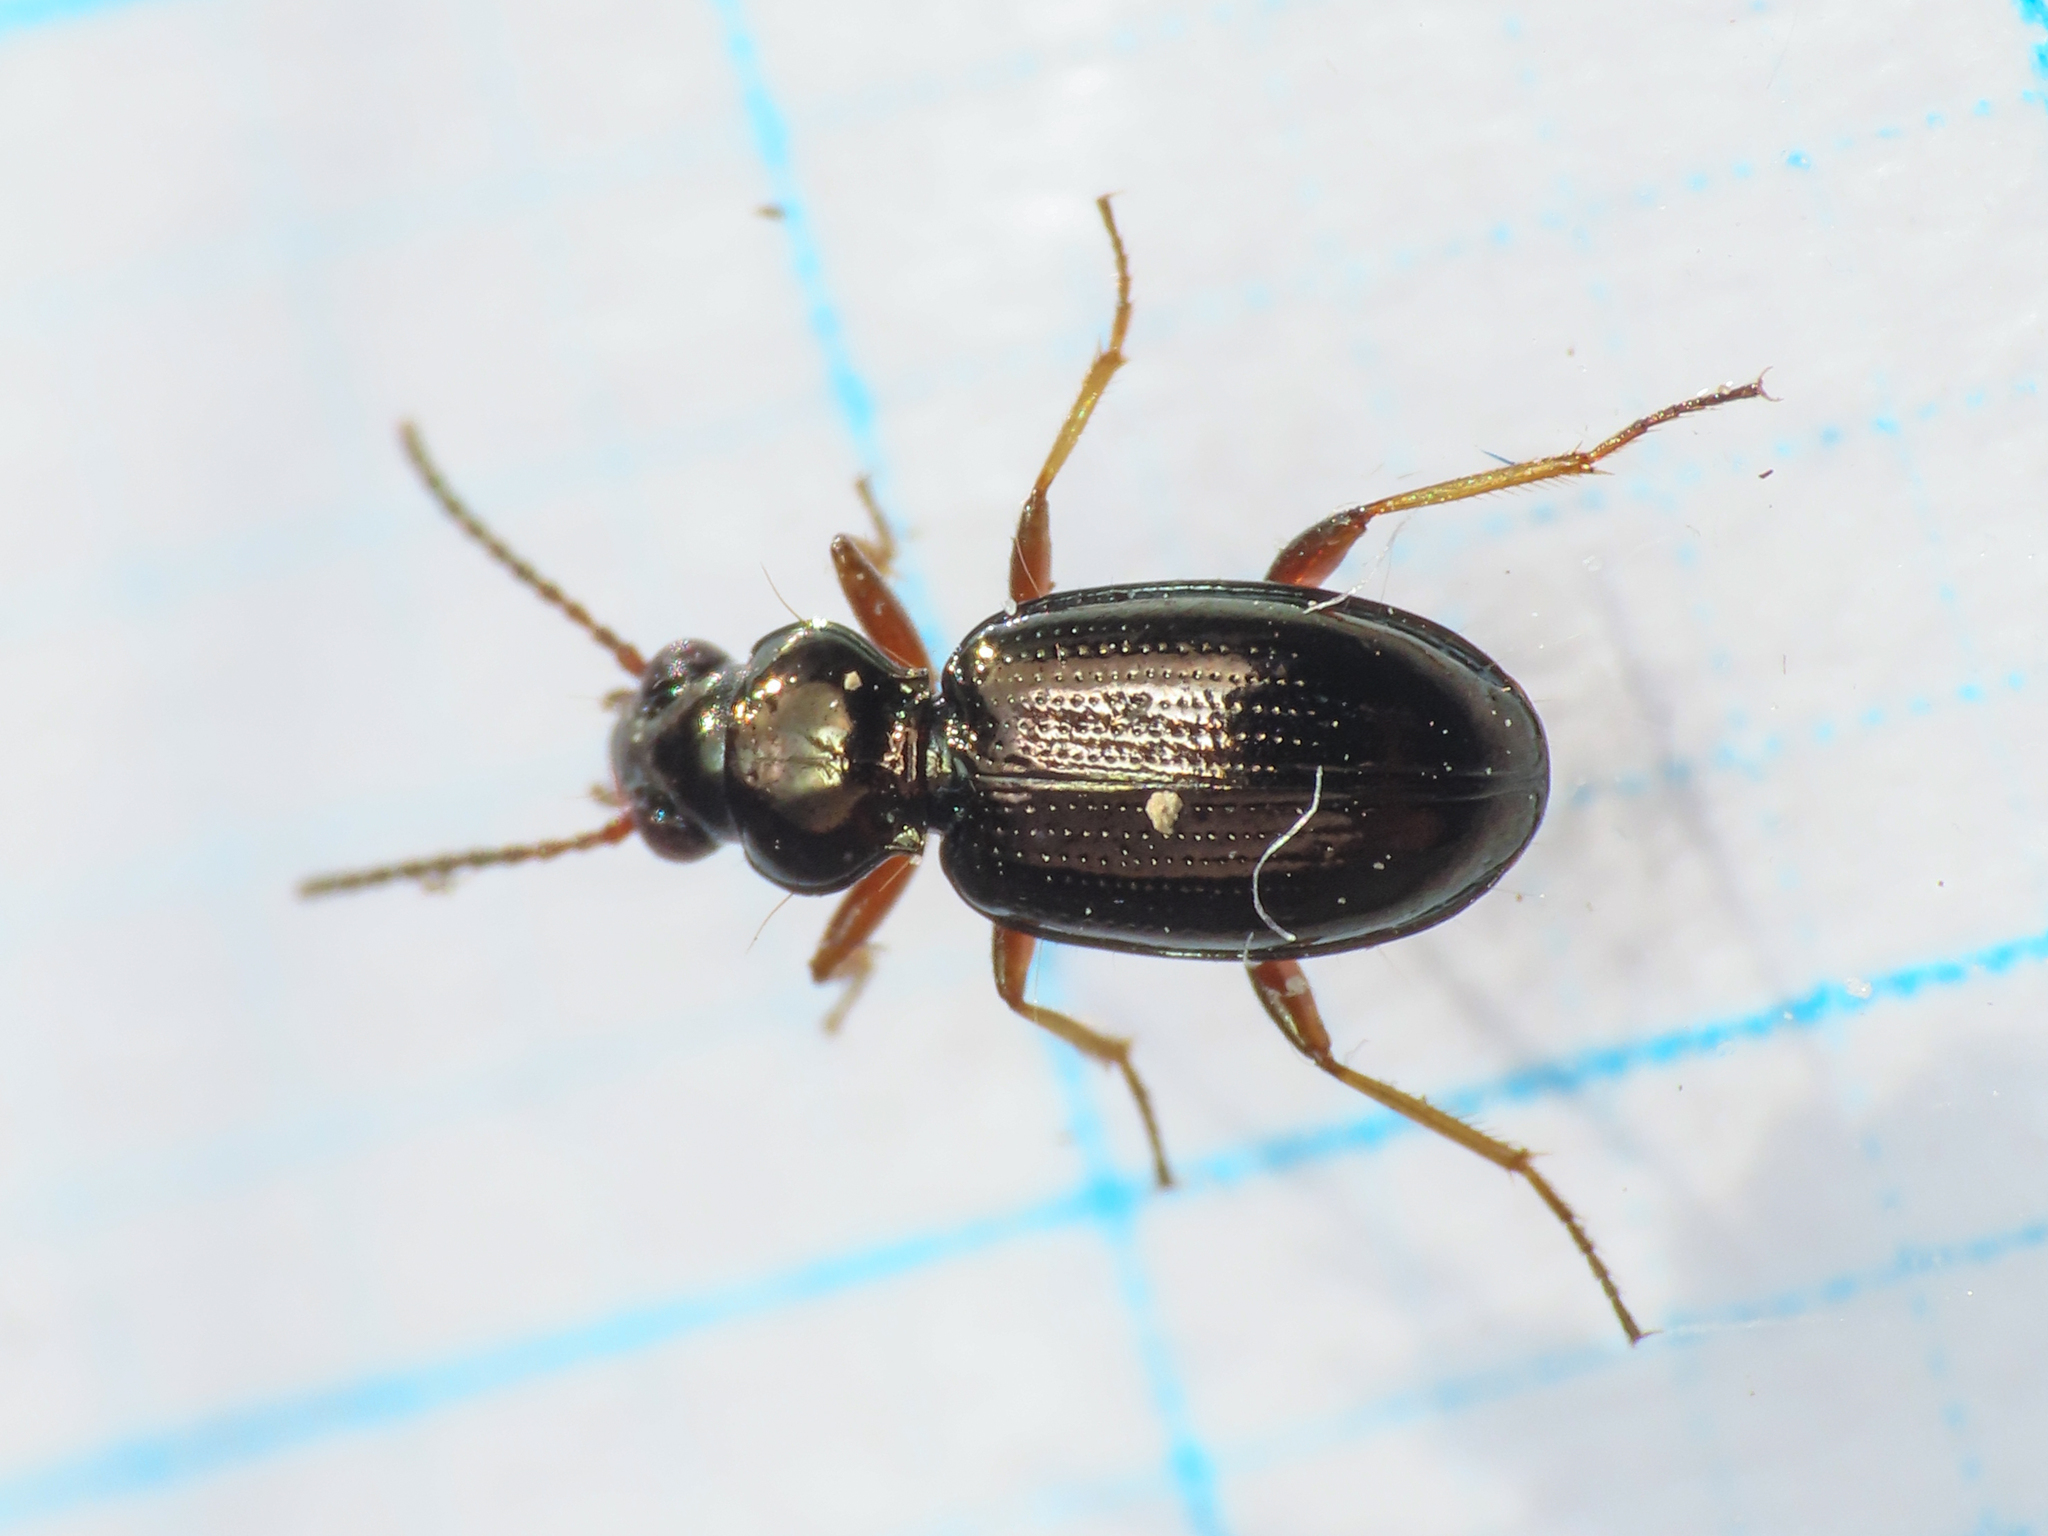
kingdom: Animalia
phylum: Arthropoda
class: Insecta
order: Coleoptera
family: Carabidae
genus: Bembidion
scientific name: Bembidion lampros
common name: Shiny riverbank ground beetle
